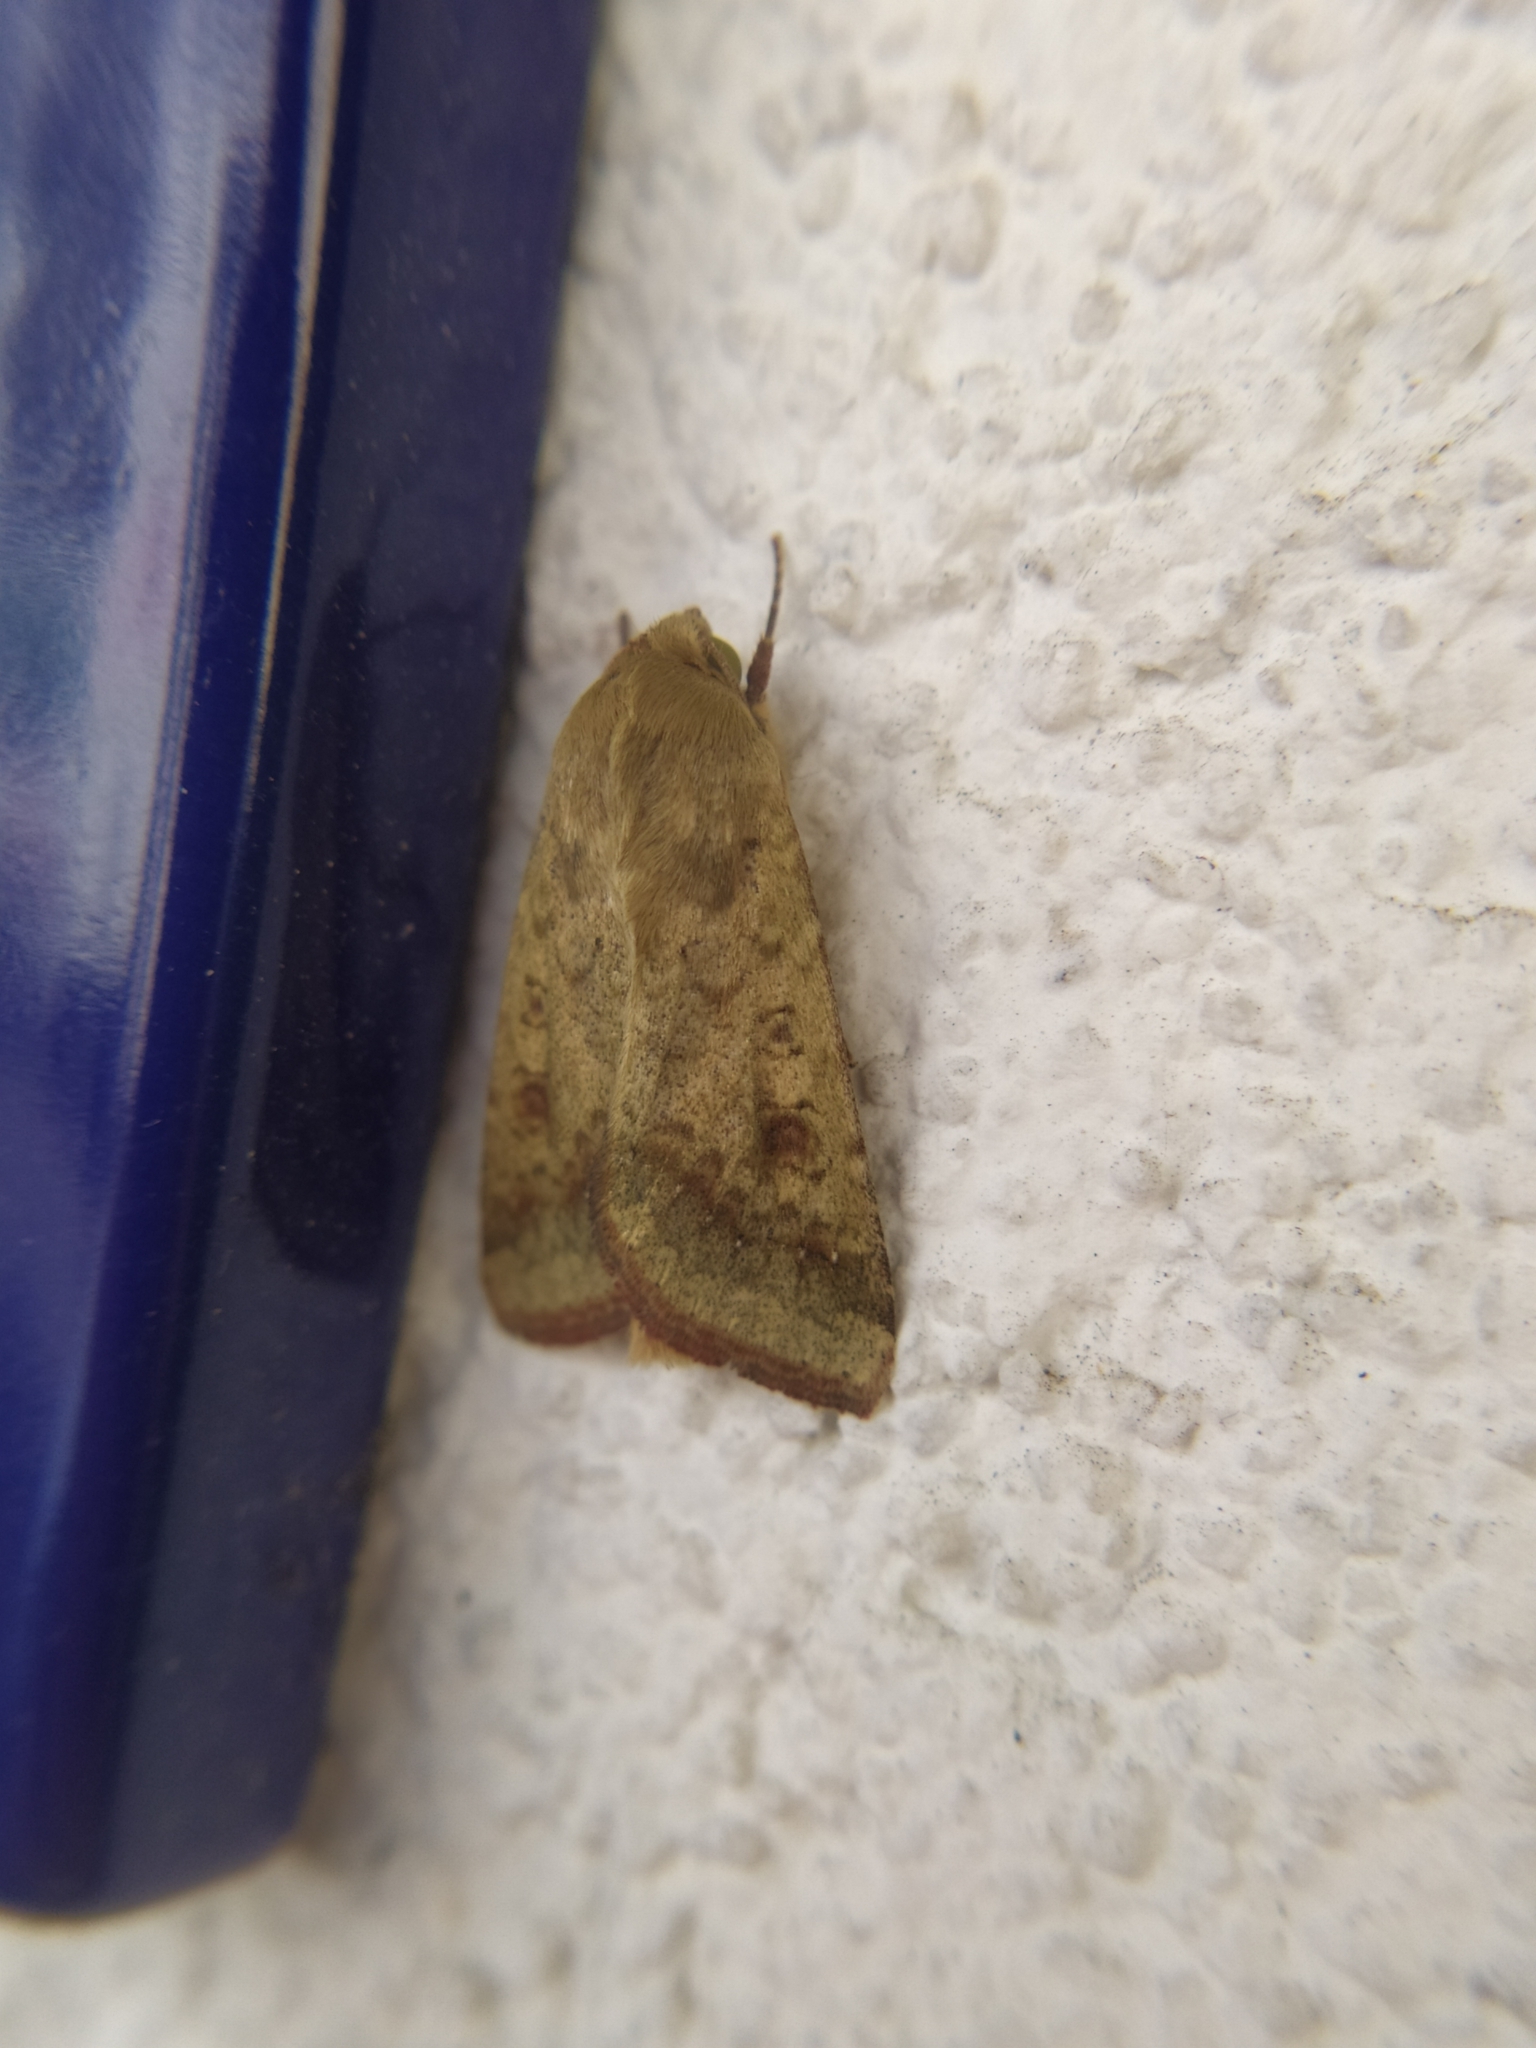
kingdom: Animalia
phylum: Arthropoda
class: Insecta
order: Lepidoptera
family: Noctuidae
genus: Helicoverpa
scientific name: Helicoverpa armigera
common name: Cotton bollworm
